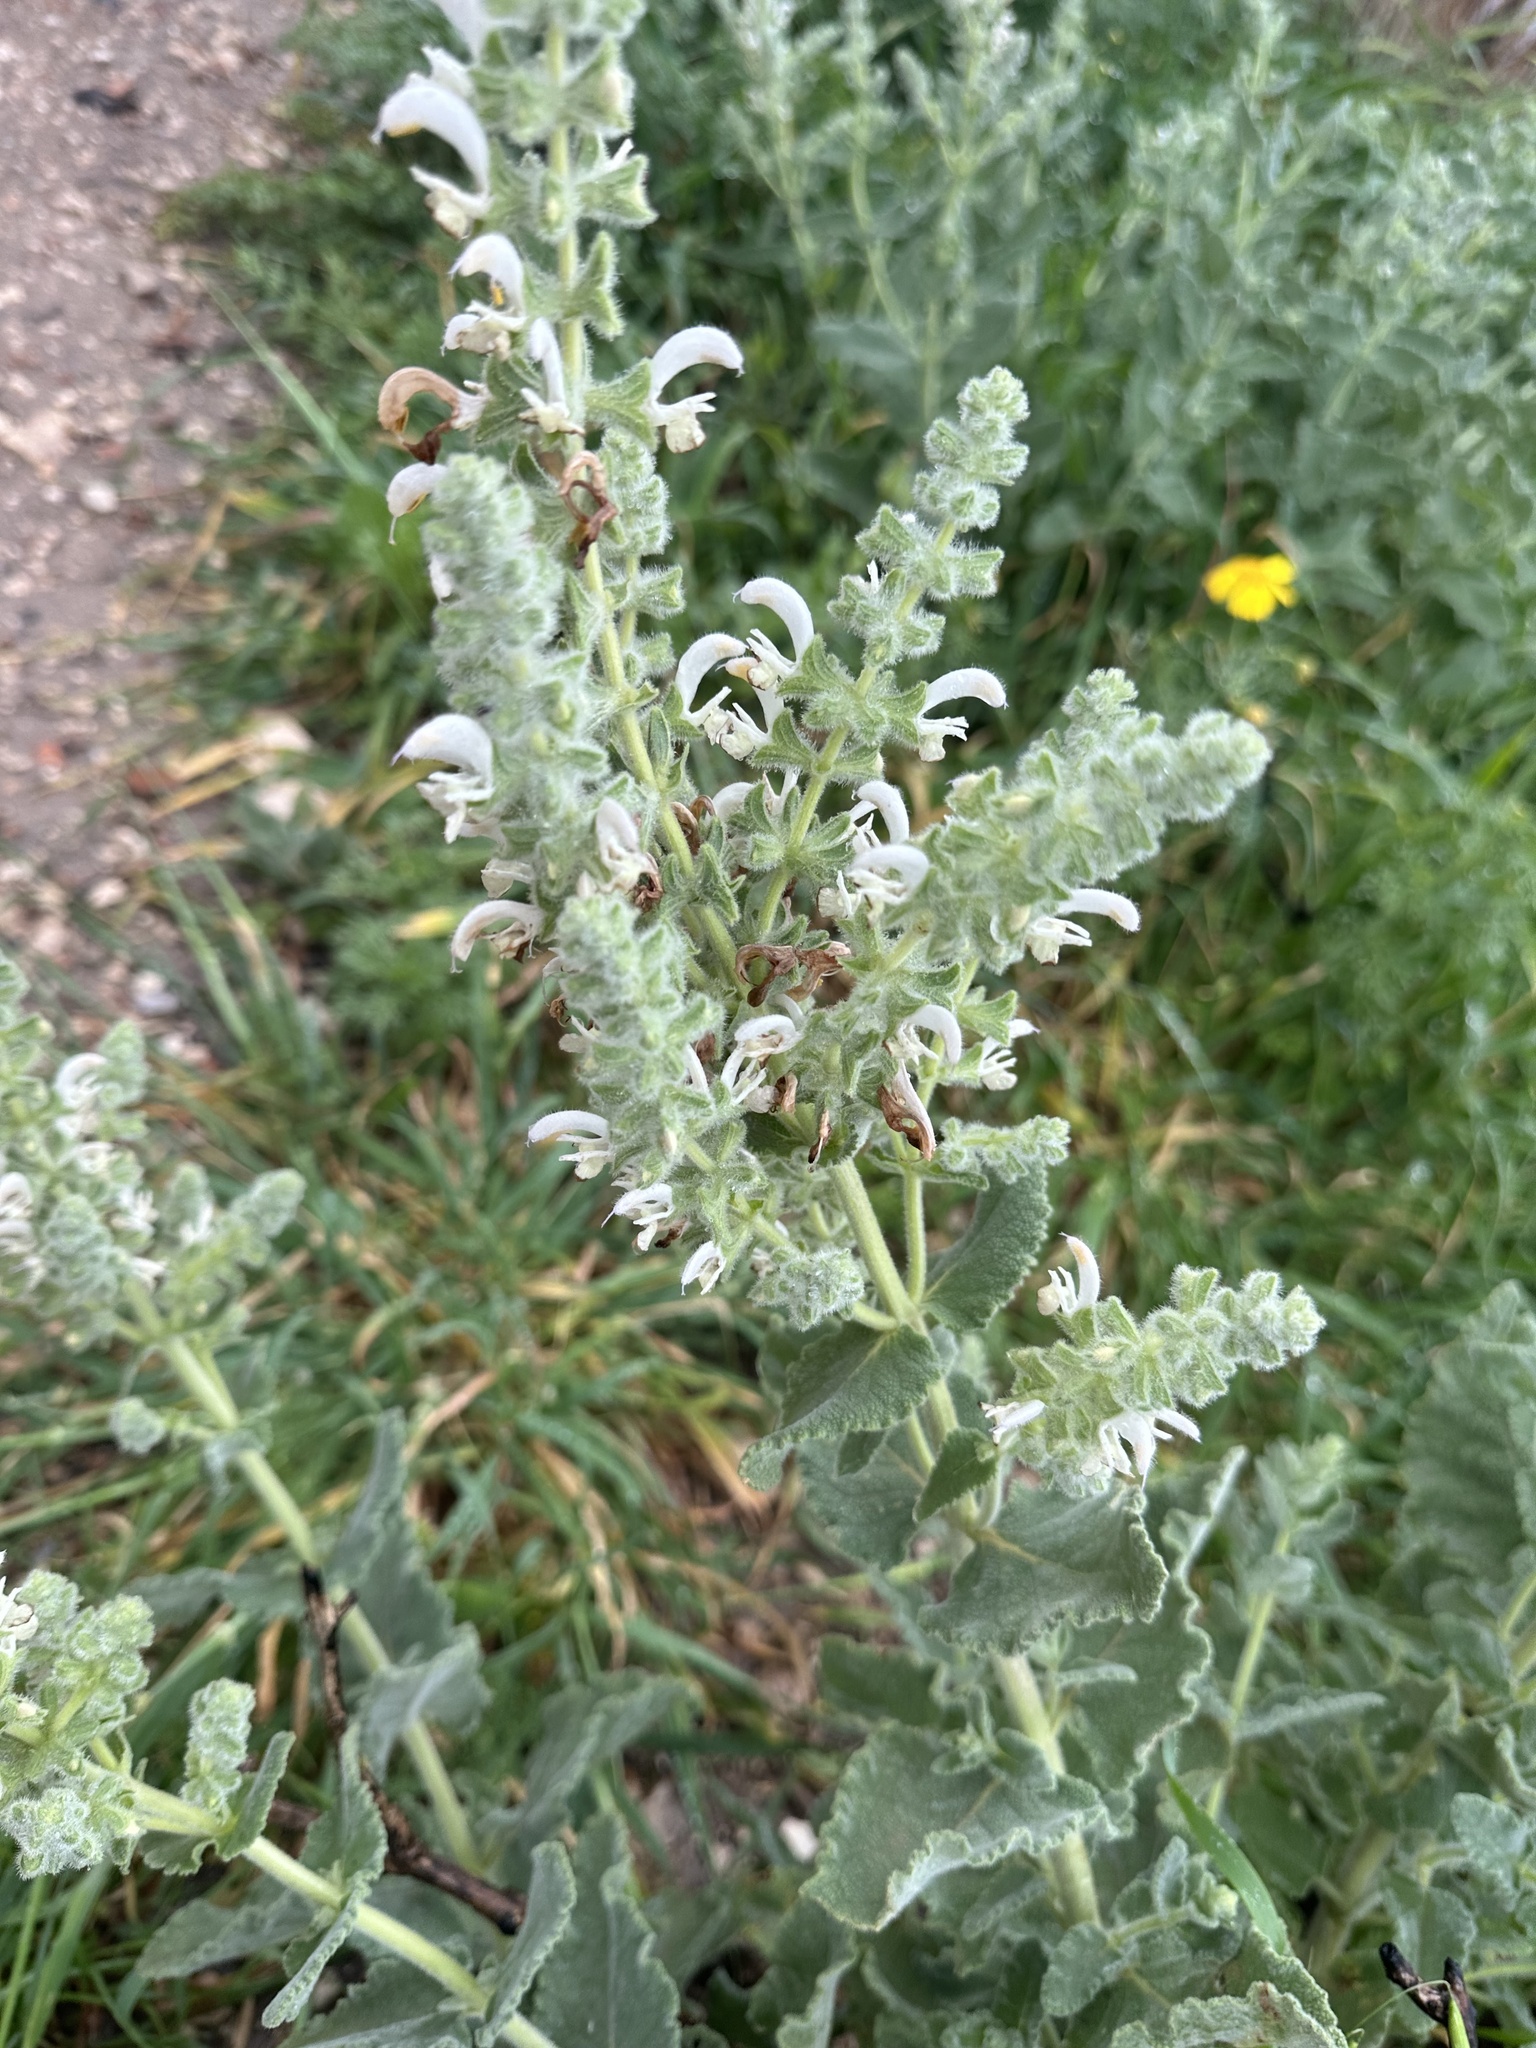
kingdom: Plantae
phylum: Tracheophyta
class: Magnoliopsida
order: Lamiales
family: Lamiaceae
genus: Salvia
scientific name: Salvia dominica
